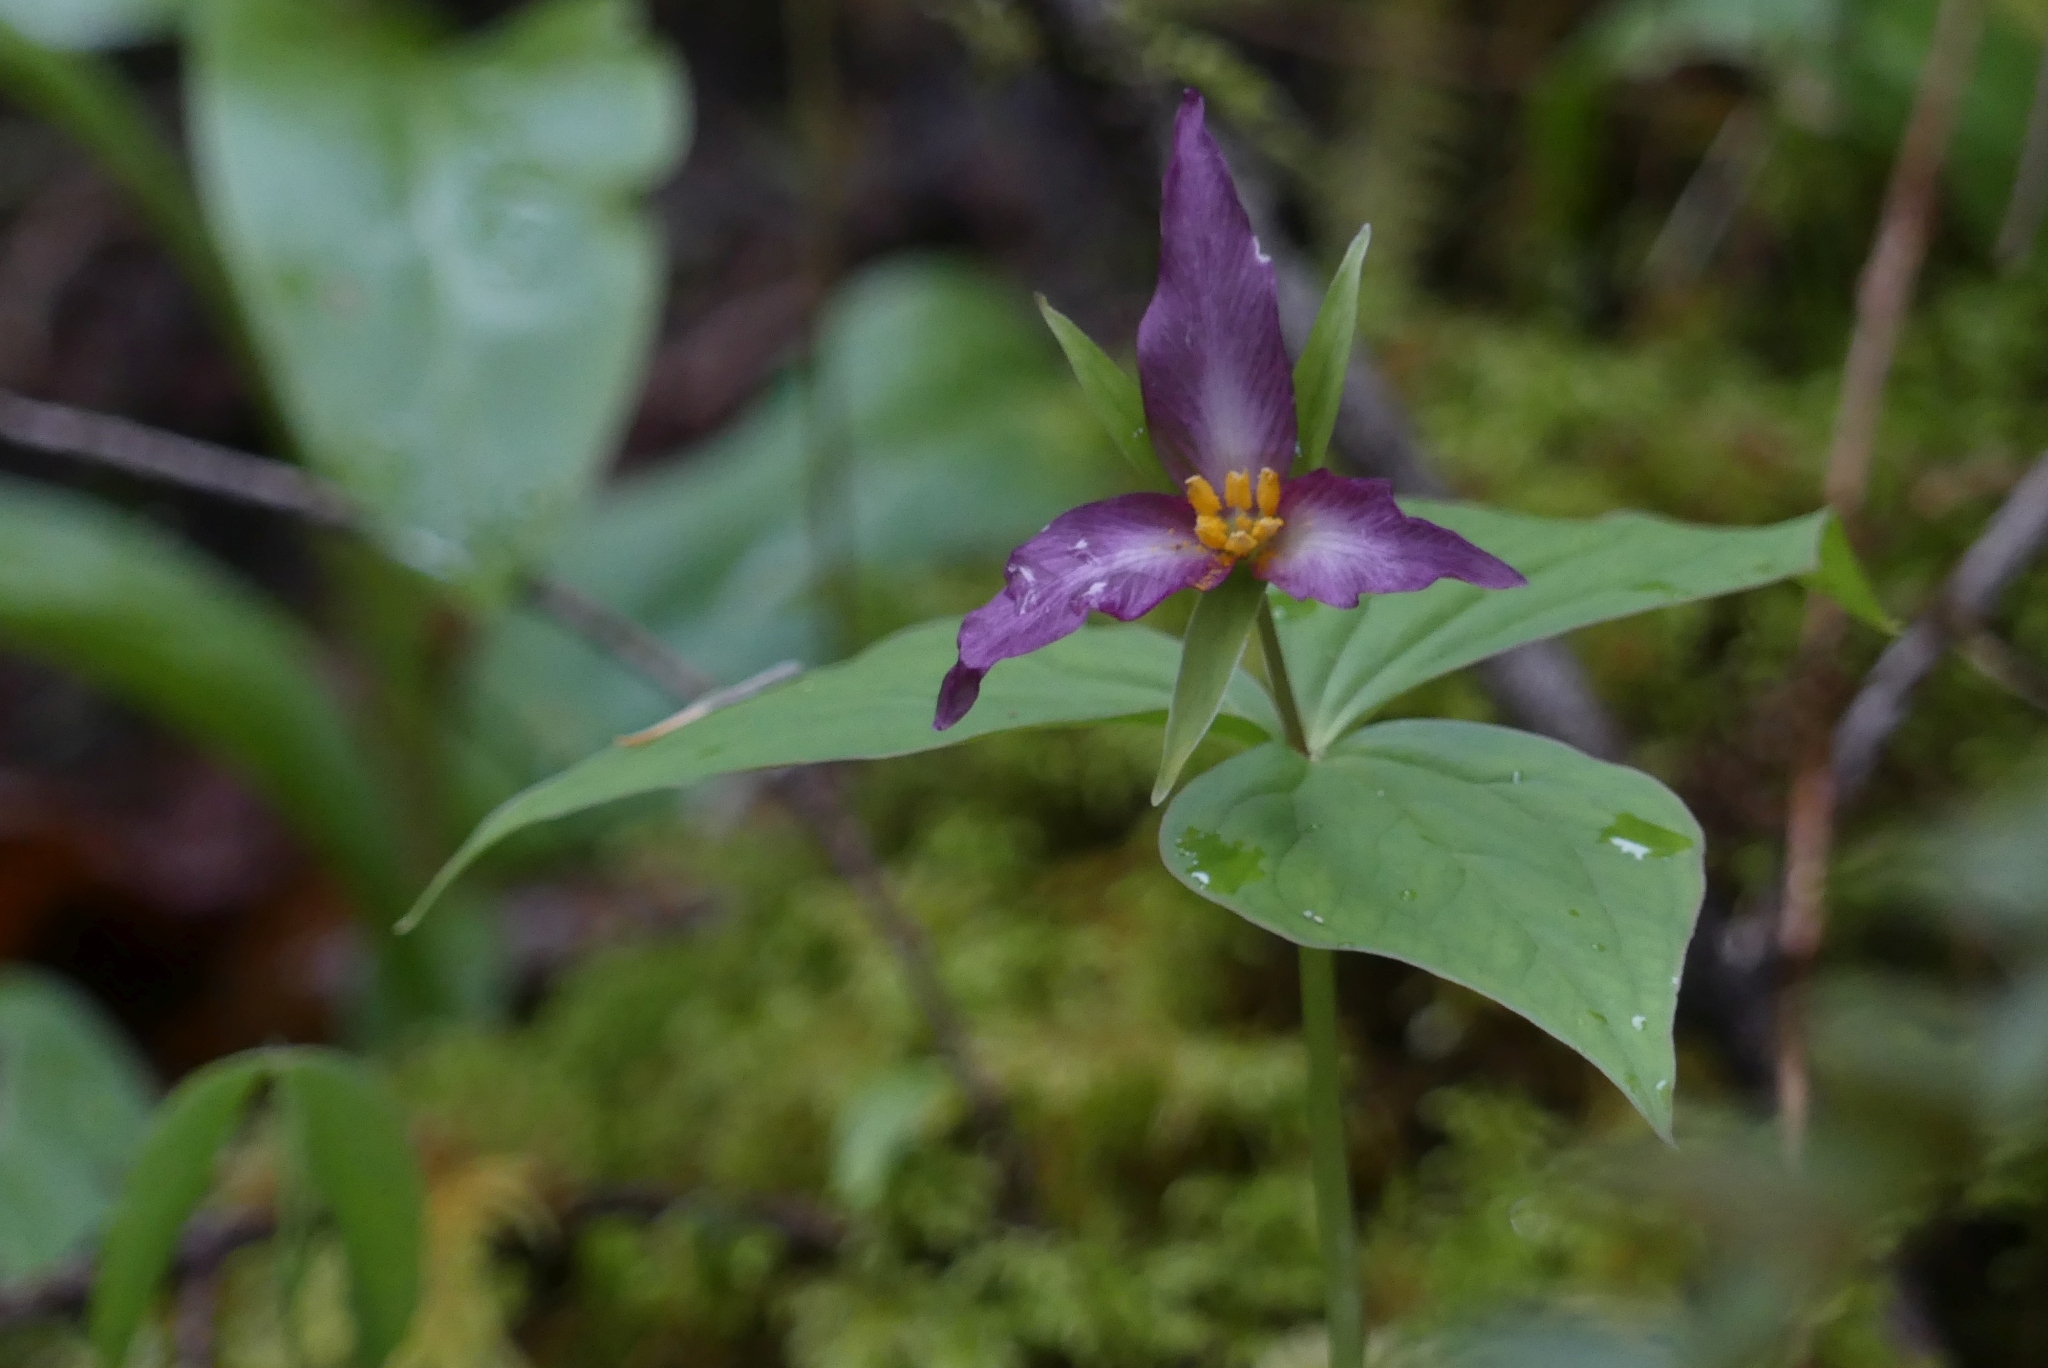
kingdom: Plantae
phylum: Tracheophyta
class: Liliopsida
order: Liliales
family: Melanthiaceae
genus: Trillium
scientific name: Trillium ovatum
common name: Pacific trillium
